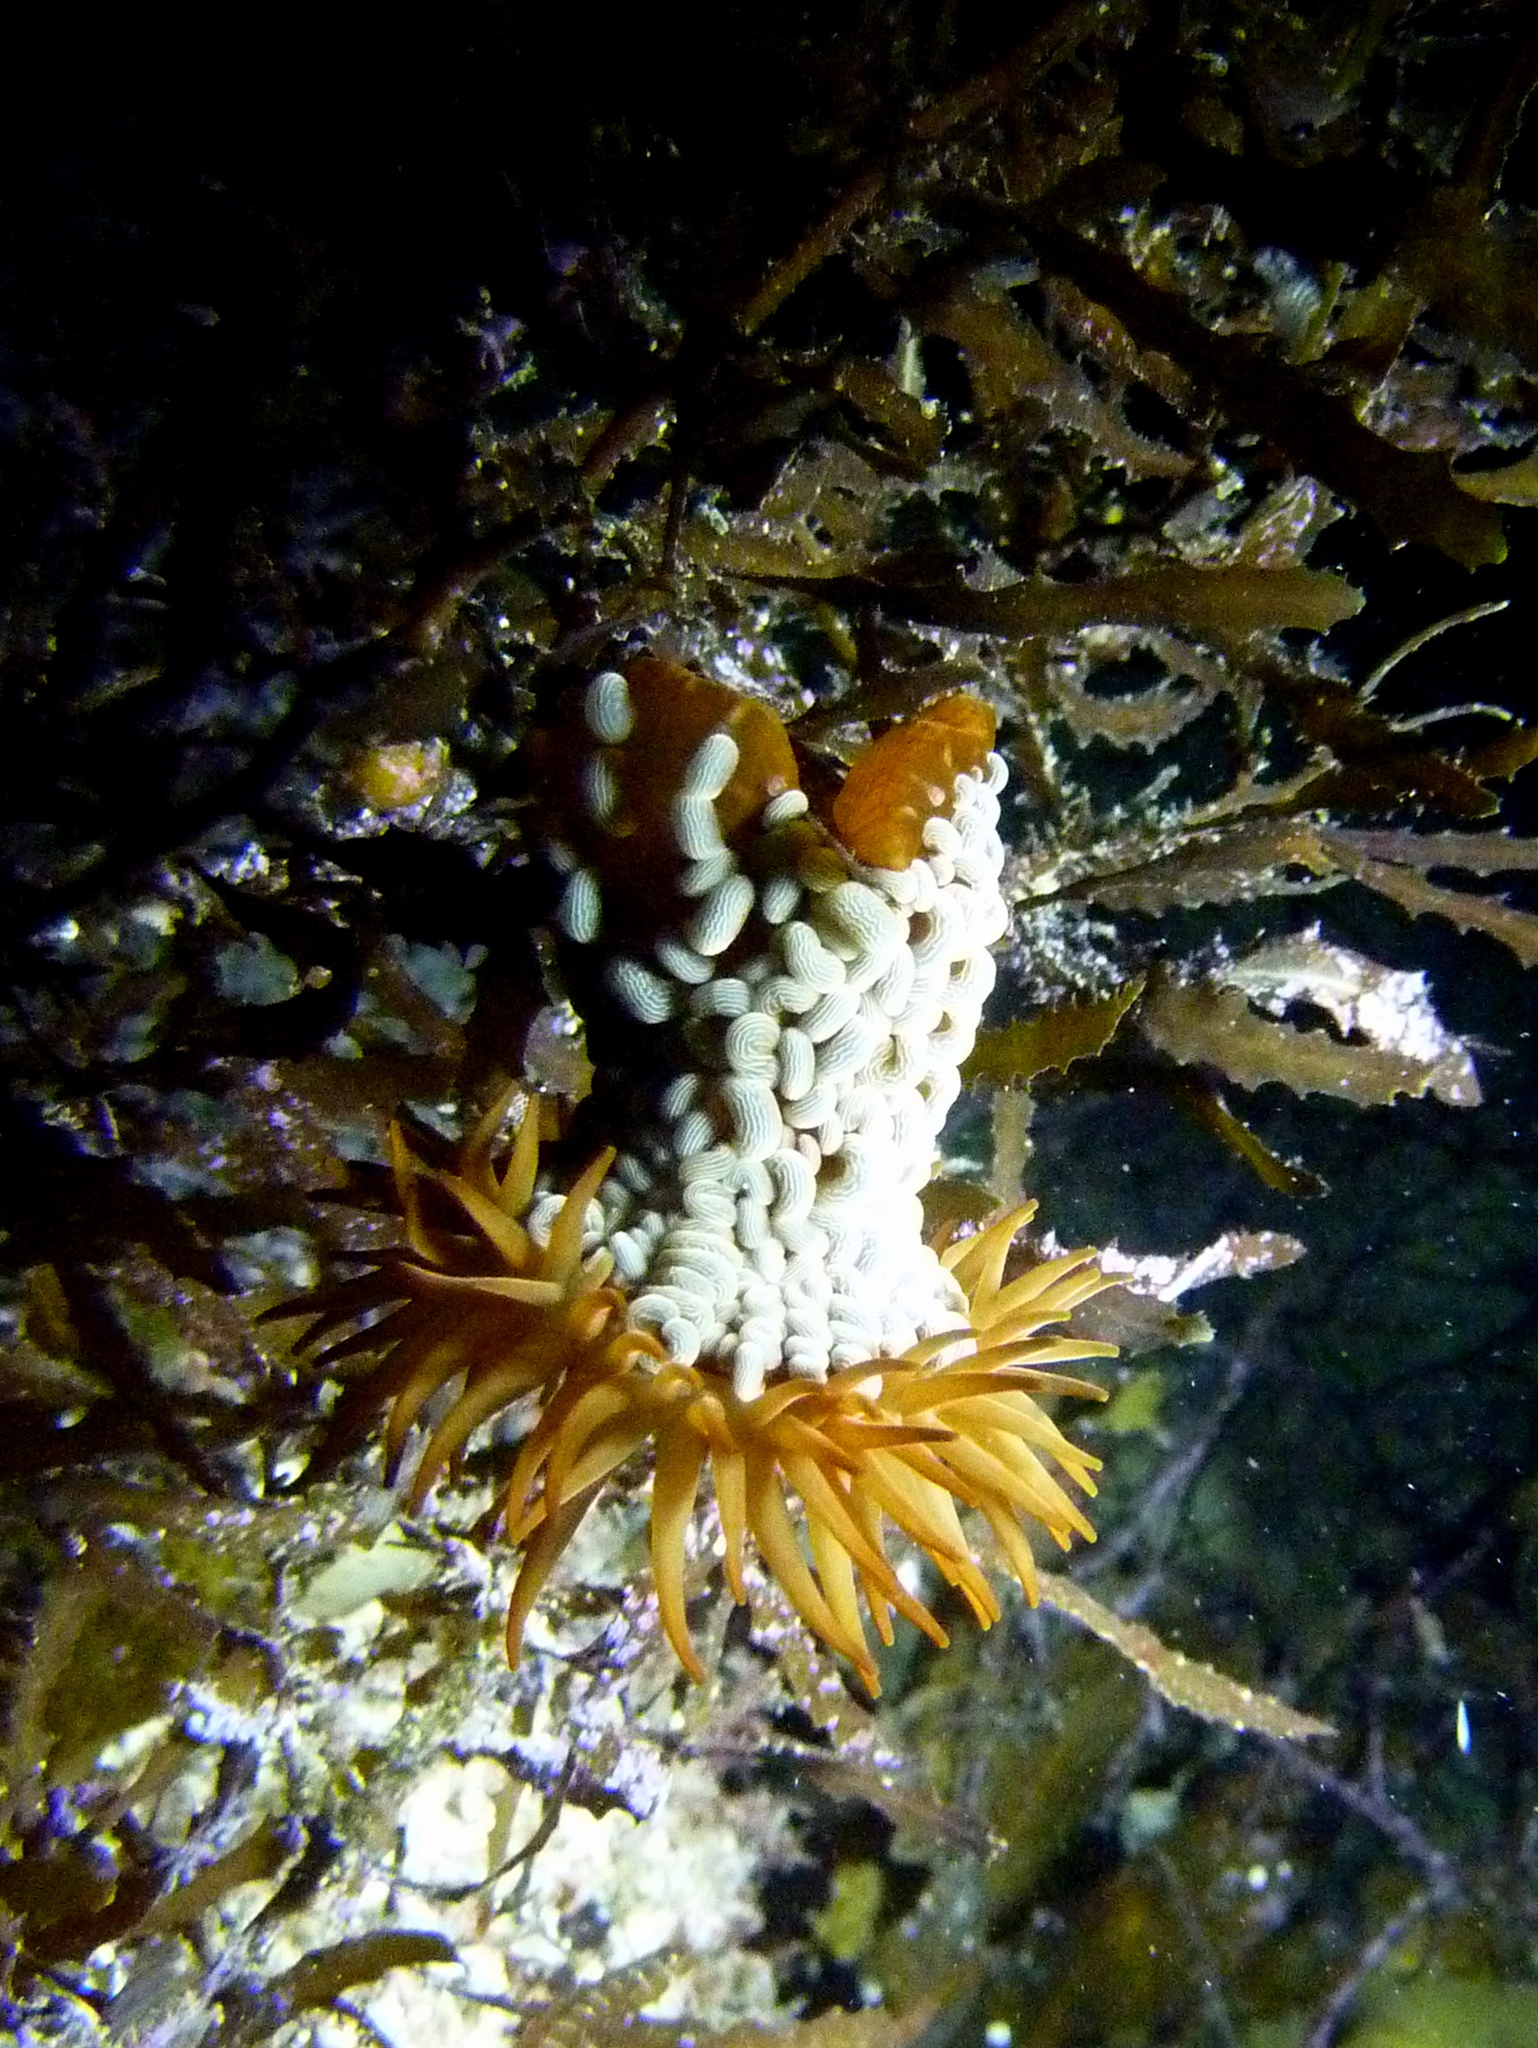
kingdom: Animalia
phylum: Cnidaria
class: Anthozoa
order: Actiniaria
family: Actiniidae
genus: Phlyctenactis
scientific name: Phlyctenactis tuberculosa
